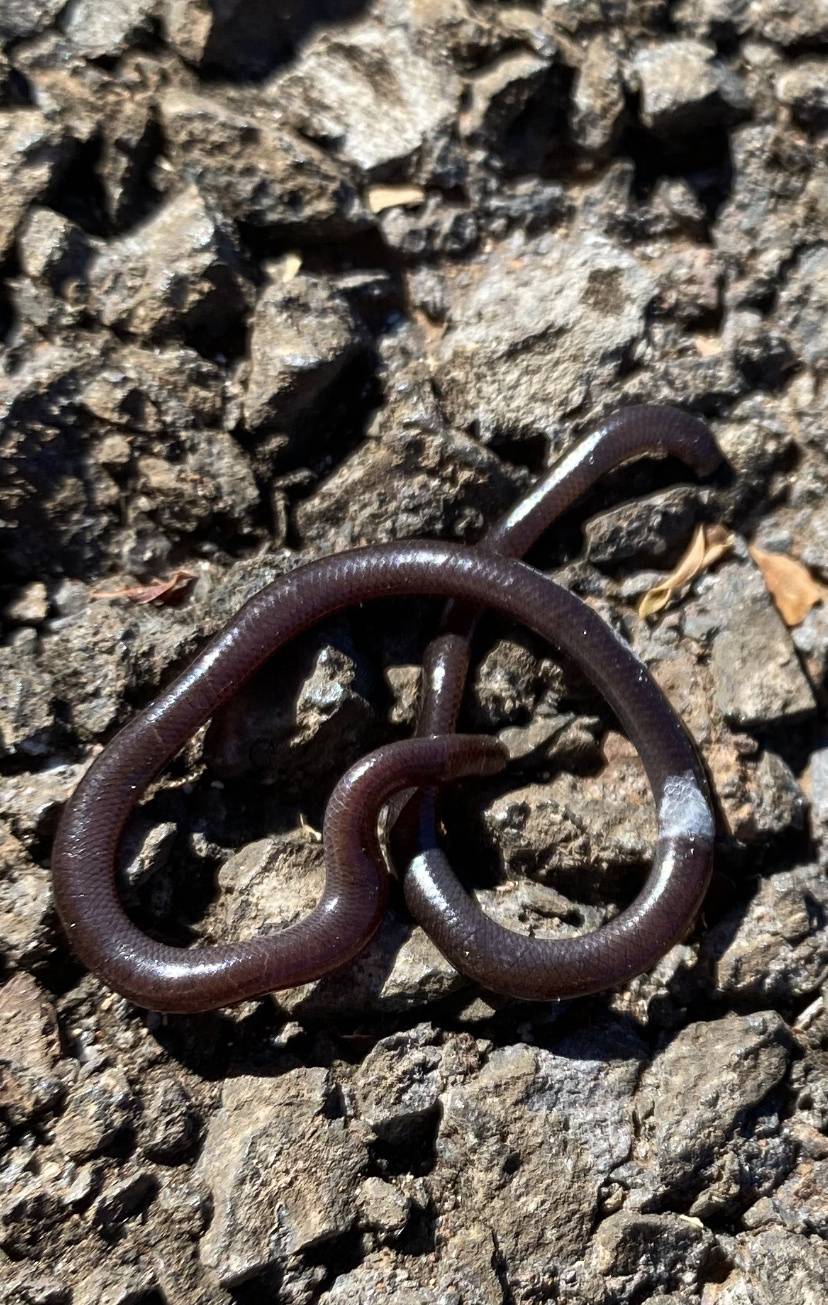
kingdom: Animalia
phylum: Chordata
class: Squamata
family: Typhlopidae
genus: Indotyphlops
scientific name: Indotyphlops braminus
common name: Brahminy blindsnake
